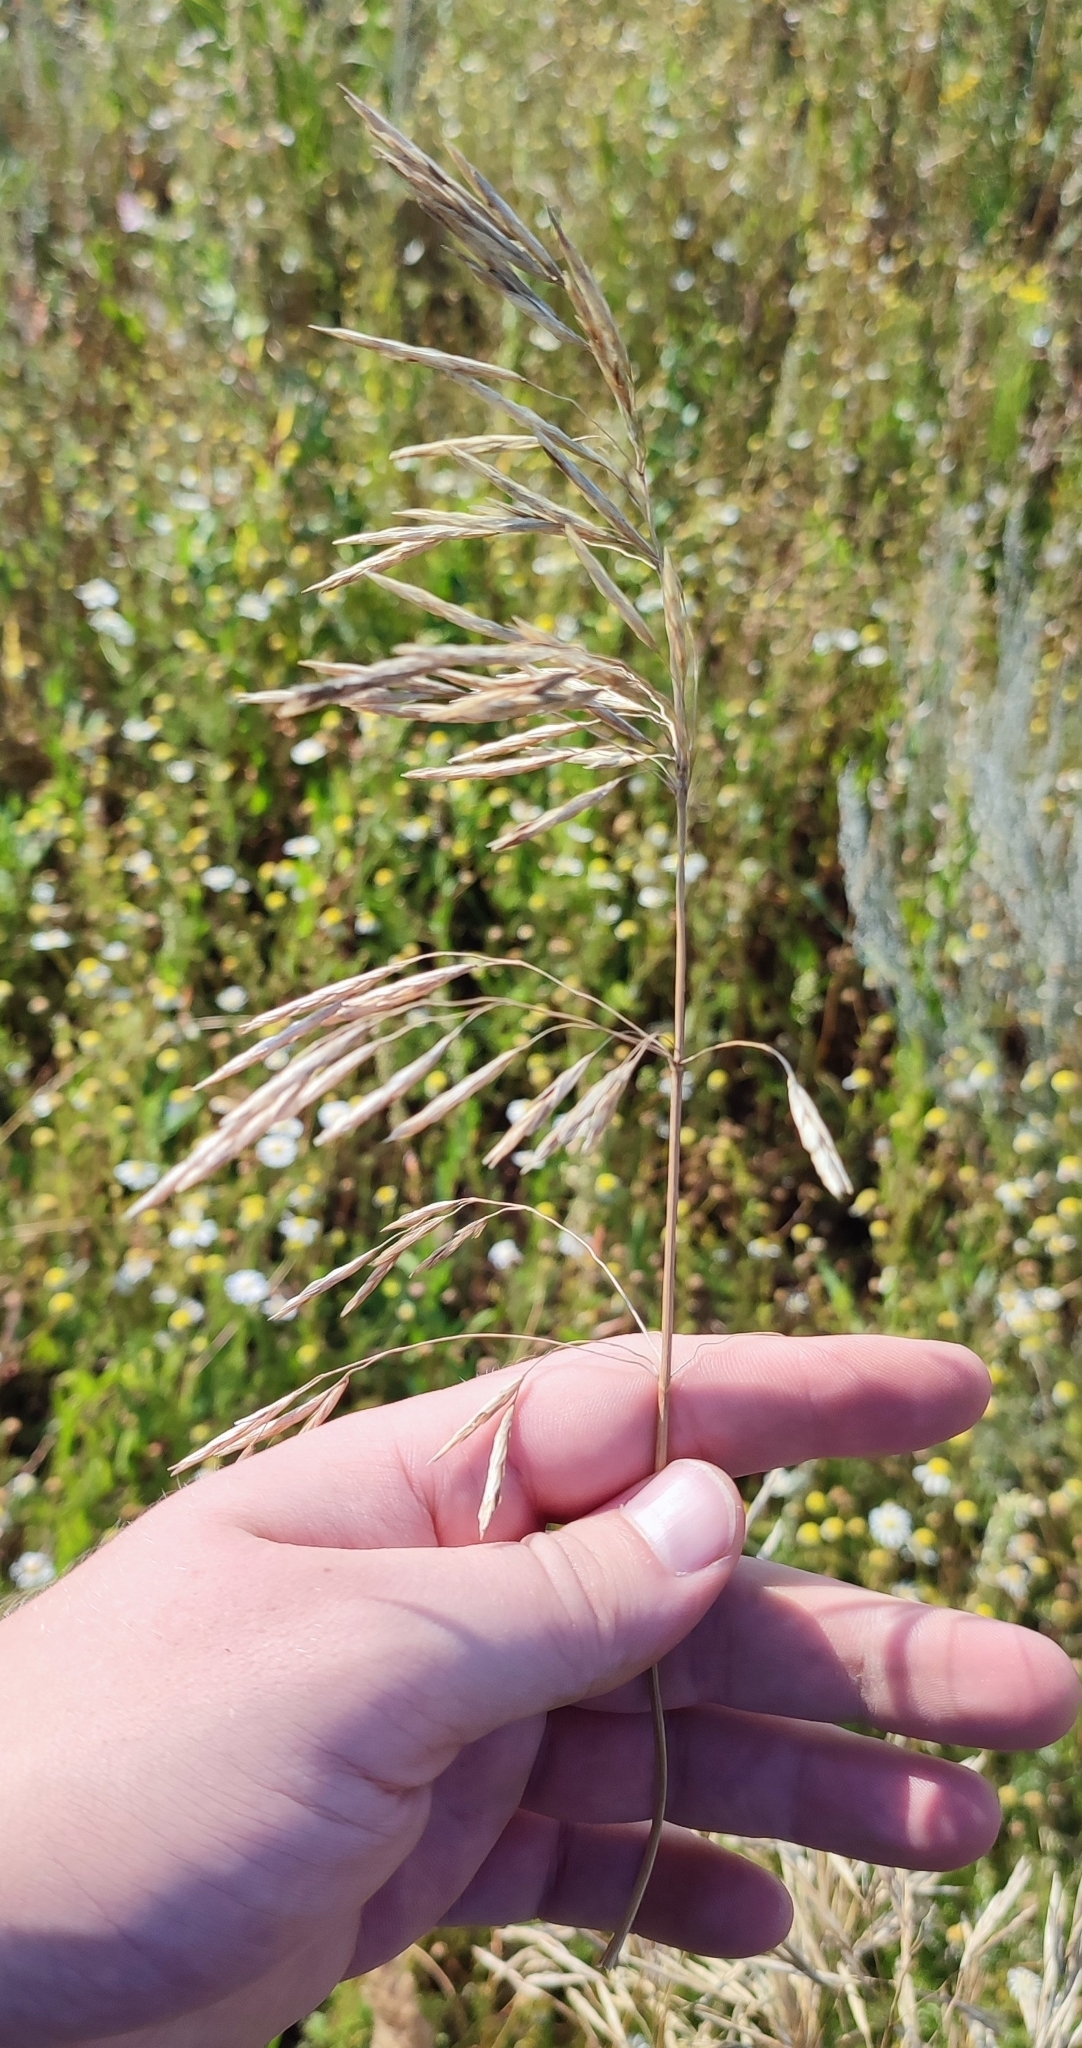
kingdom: Plantae
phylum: Tracheophyta
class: Liliopsida
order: Poales
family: Poaceae
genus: Bromus
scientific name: Bromus inermis
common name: Smooth brome
